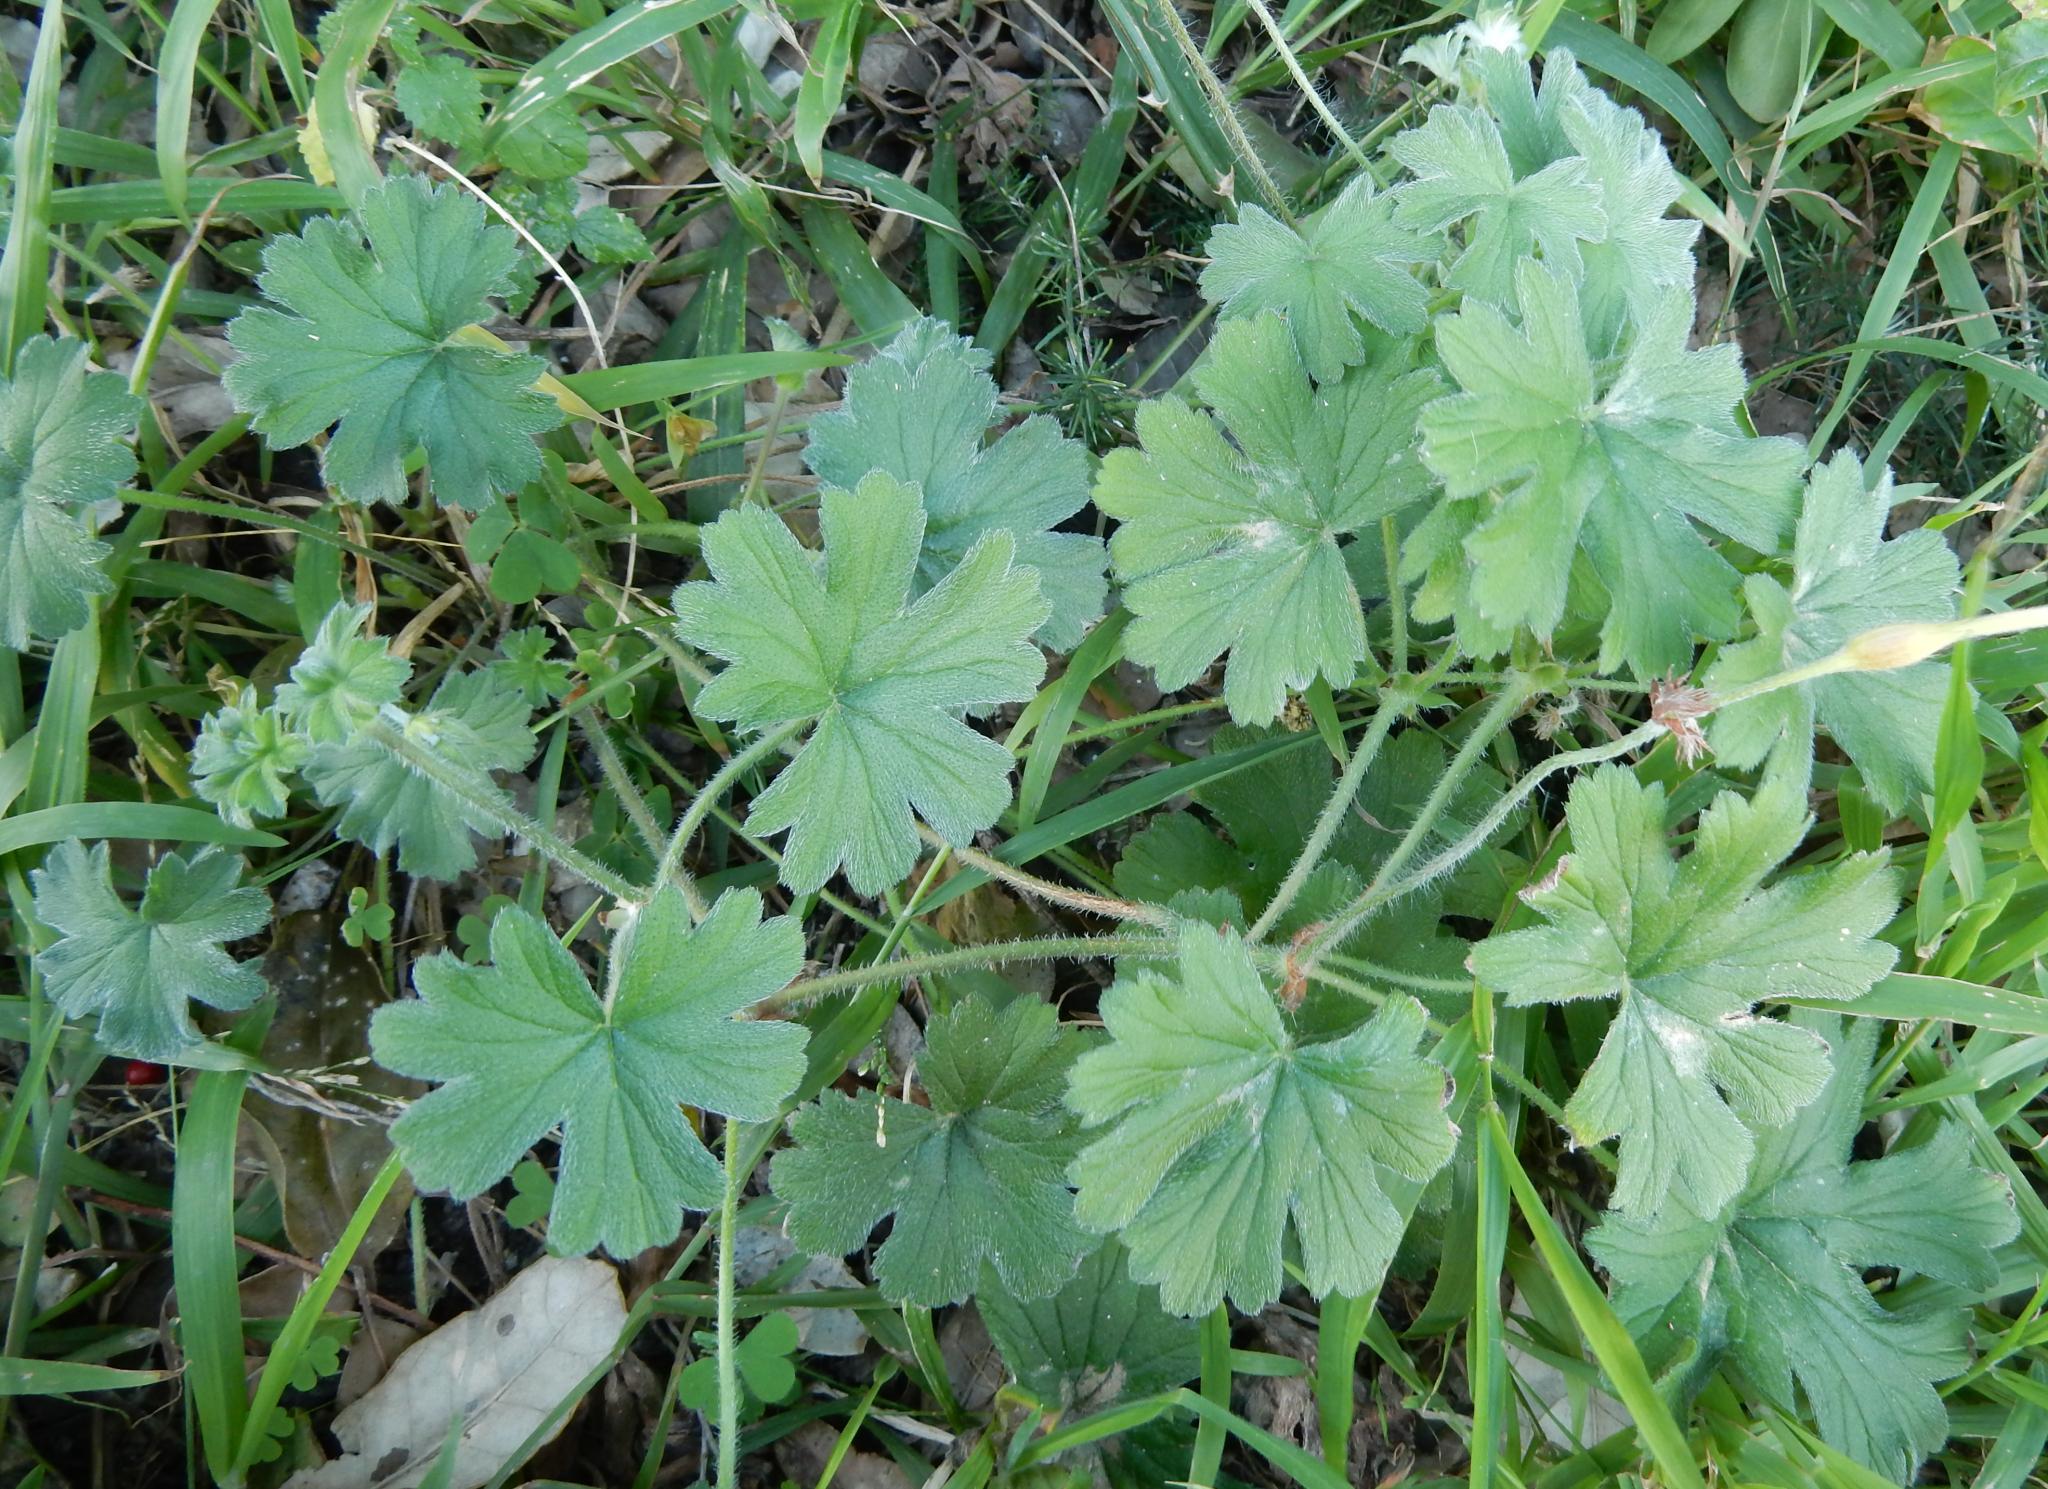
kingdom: Plantae
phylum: Tracheophyta
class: Magnoliopsida
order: Geraniales
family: Geraniaceae
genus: Pelargonium
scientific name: Pelargonium alchemilloides
